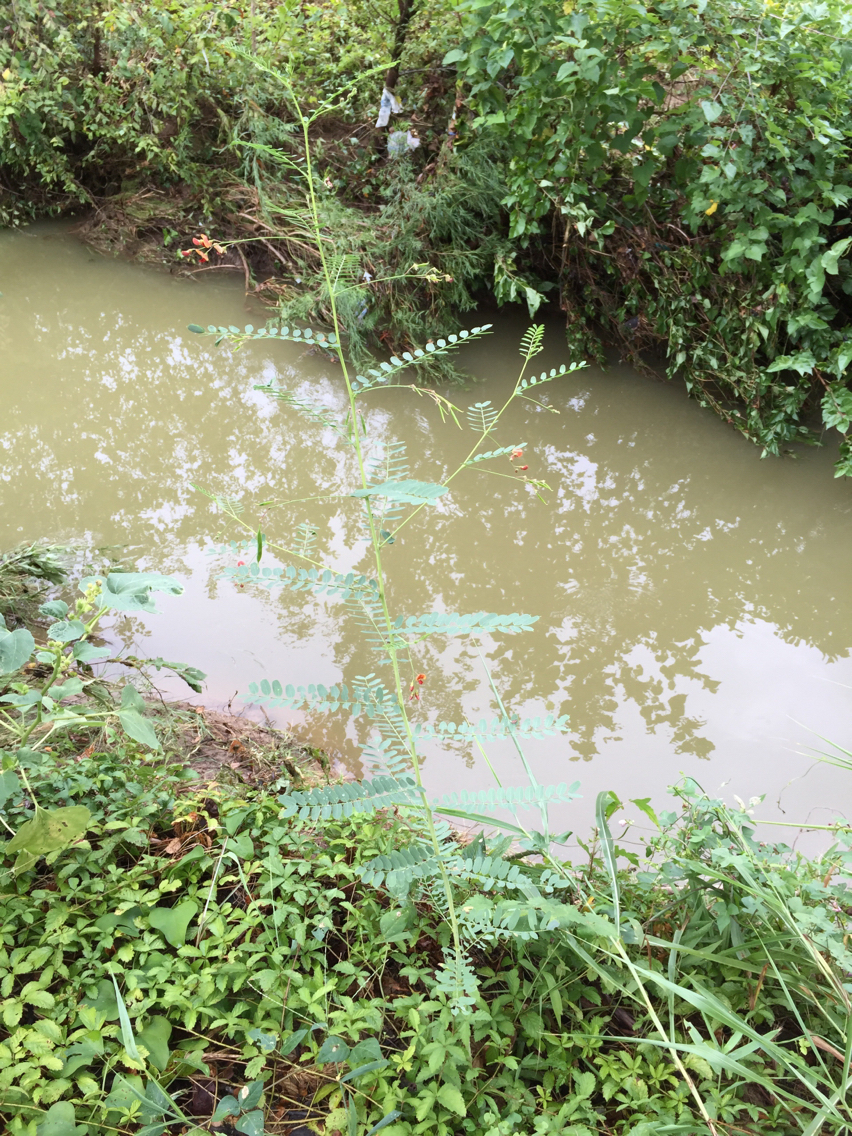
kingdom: Plantae
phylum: Tracheophyta
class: Magnoliopsida
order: Fabales
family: Fabaceae
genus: Sesbania
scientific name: Sesbania vesicaria
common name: Bagpod
